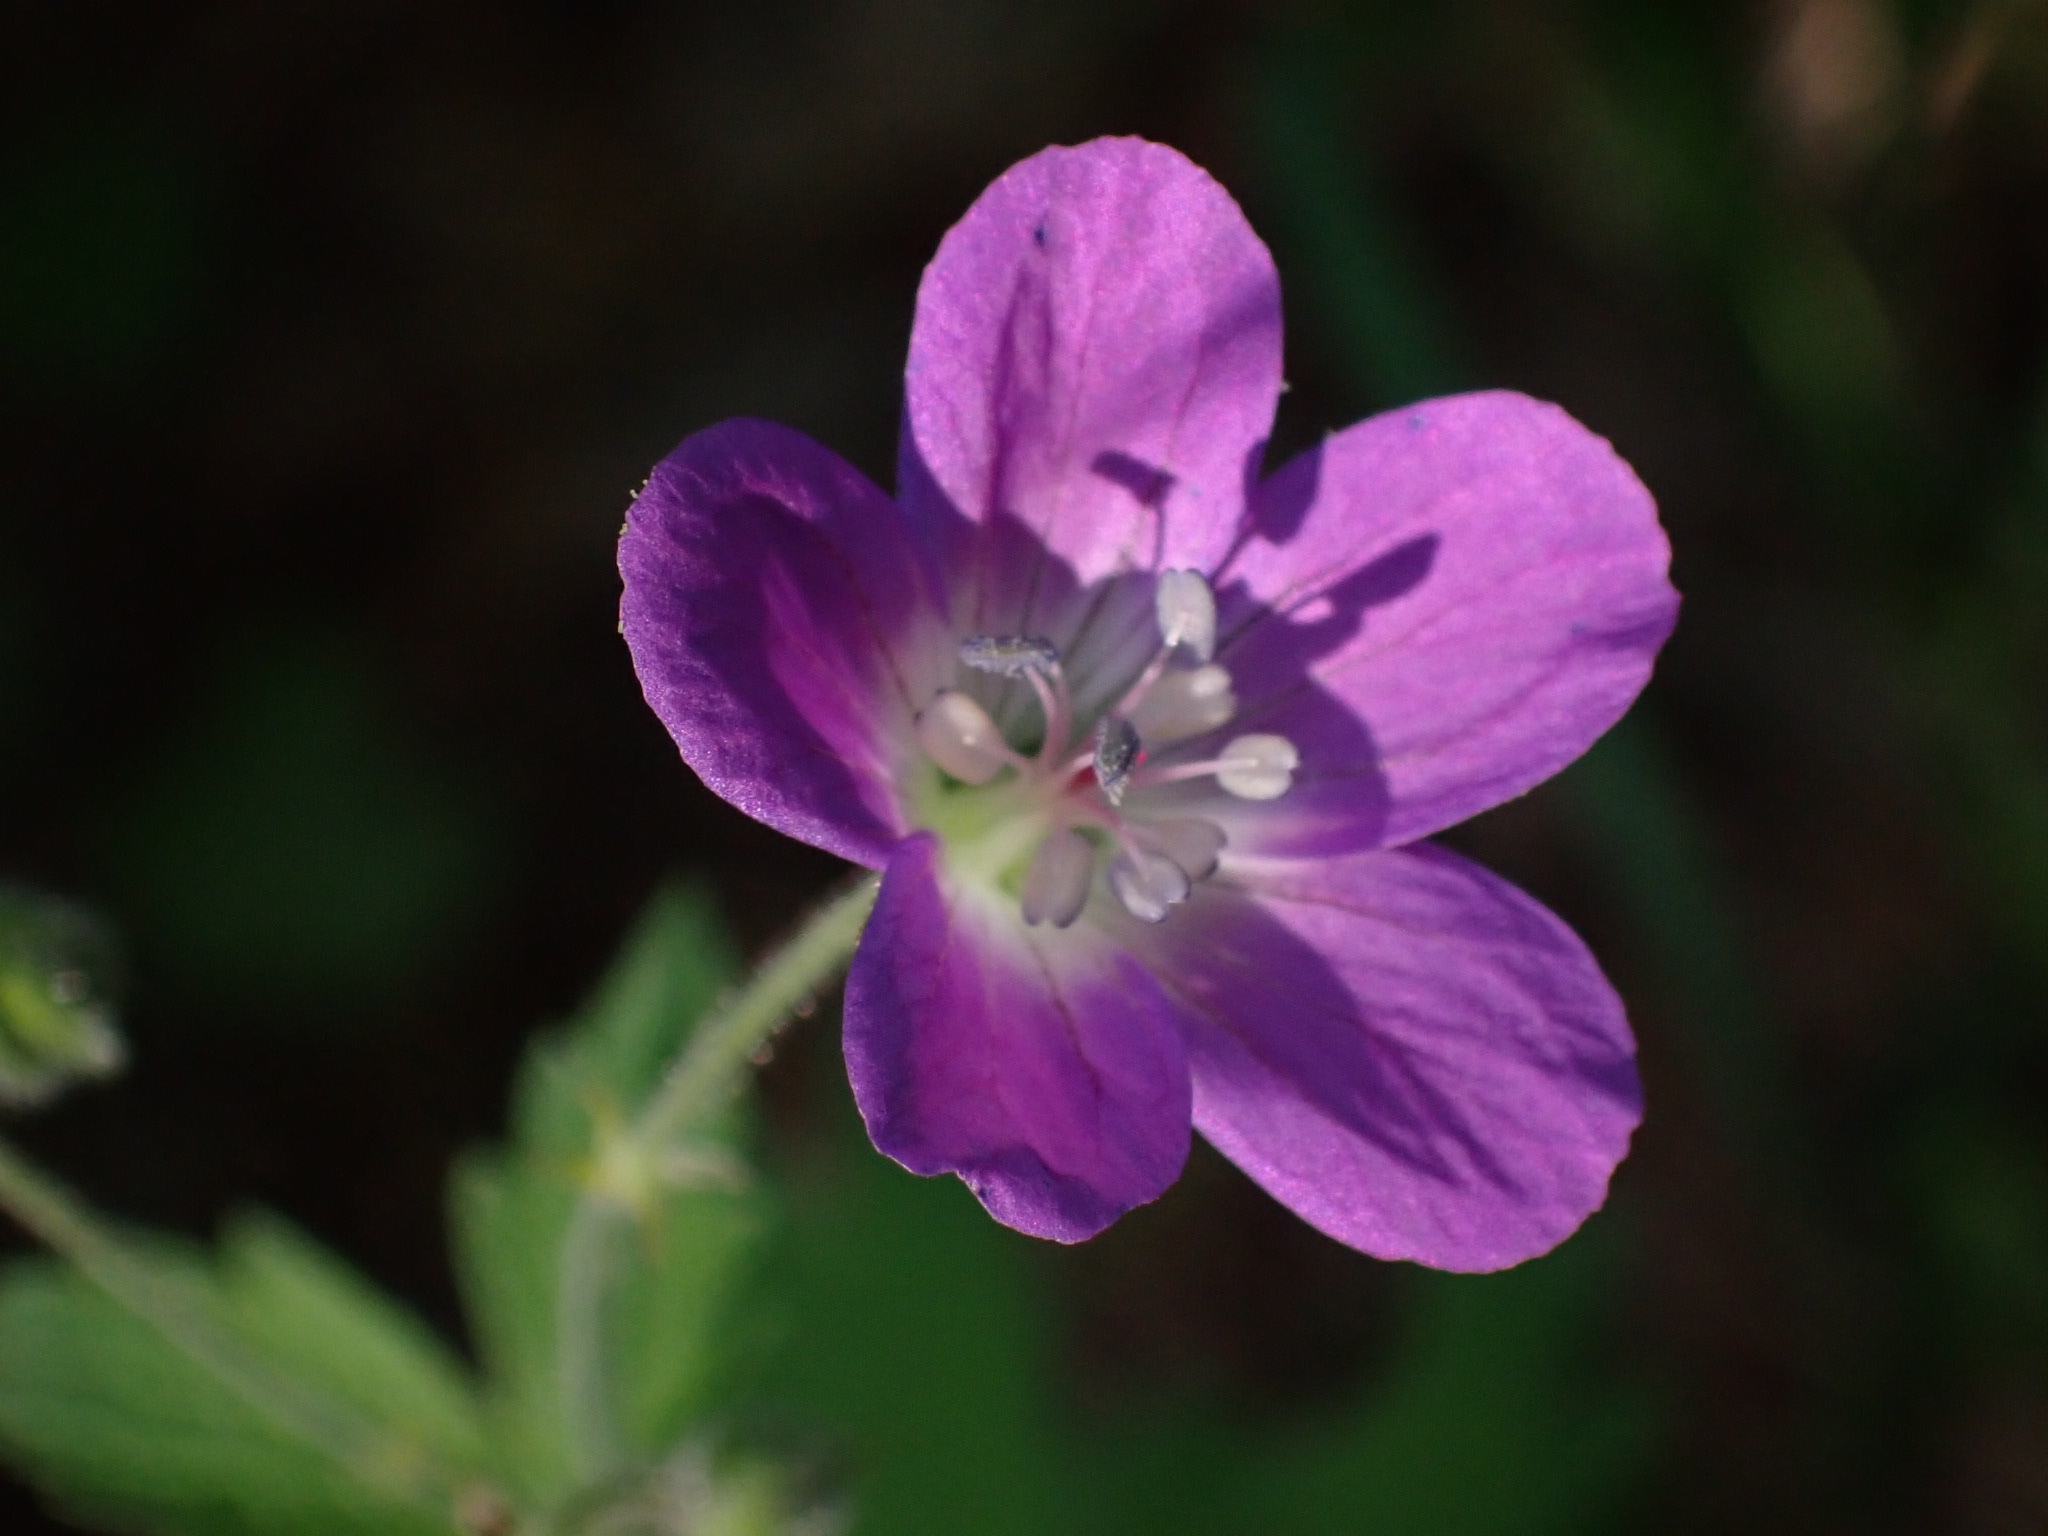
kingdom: Plantae
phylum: Tracheophyta
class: Magnoliopsida
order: Geraniales
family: Geraniaceae
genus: Geranium
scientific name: Geranium sylvaticum
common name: Wood crane's-bill
